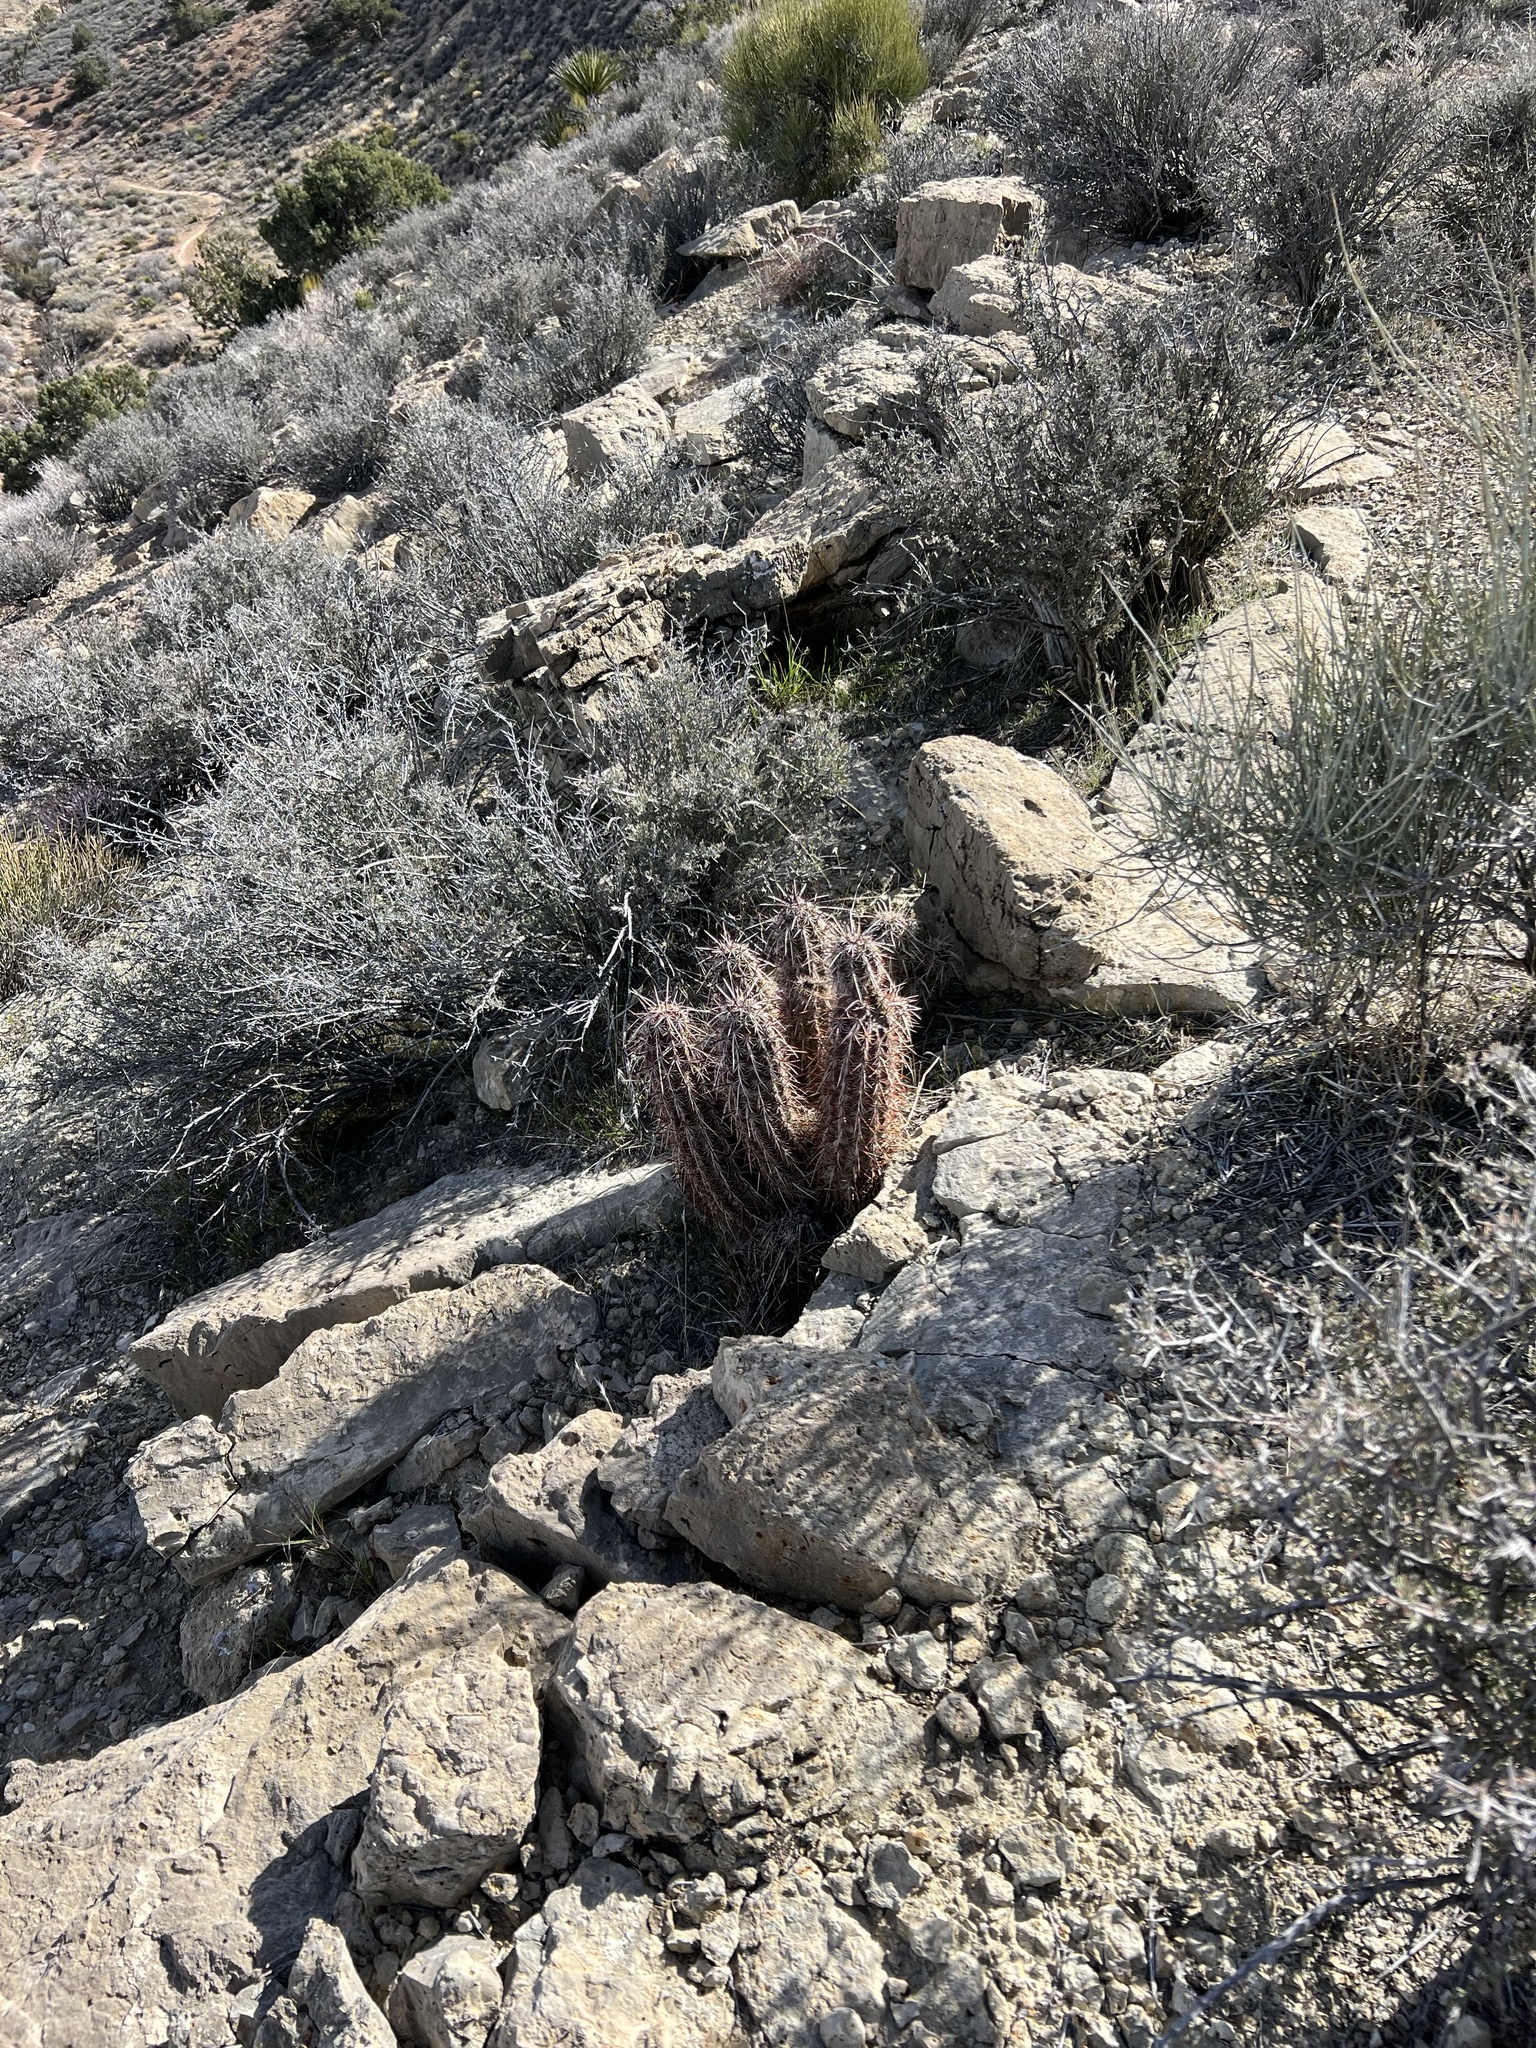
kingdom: Plantae
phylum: Tracheophyta
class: Magnoliopsida
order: Caryophyllales
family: Cactaceae
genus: Echinocereus
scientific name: Echinocereus engelmannii
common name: Engelmann's hedgehog cactus
